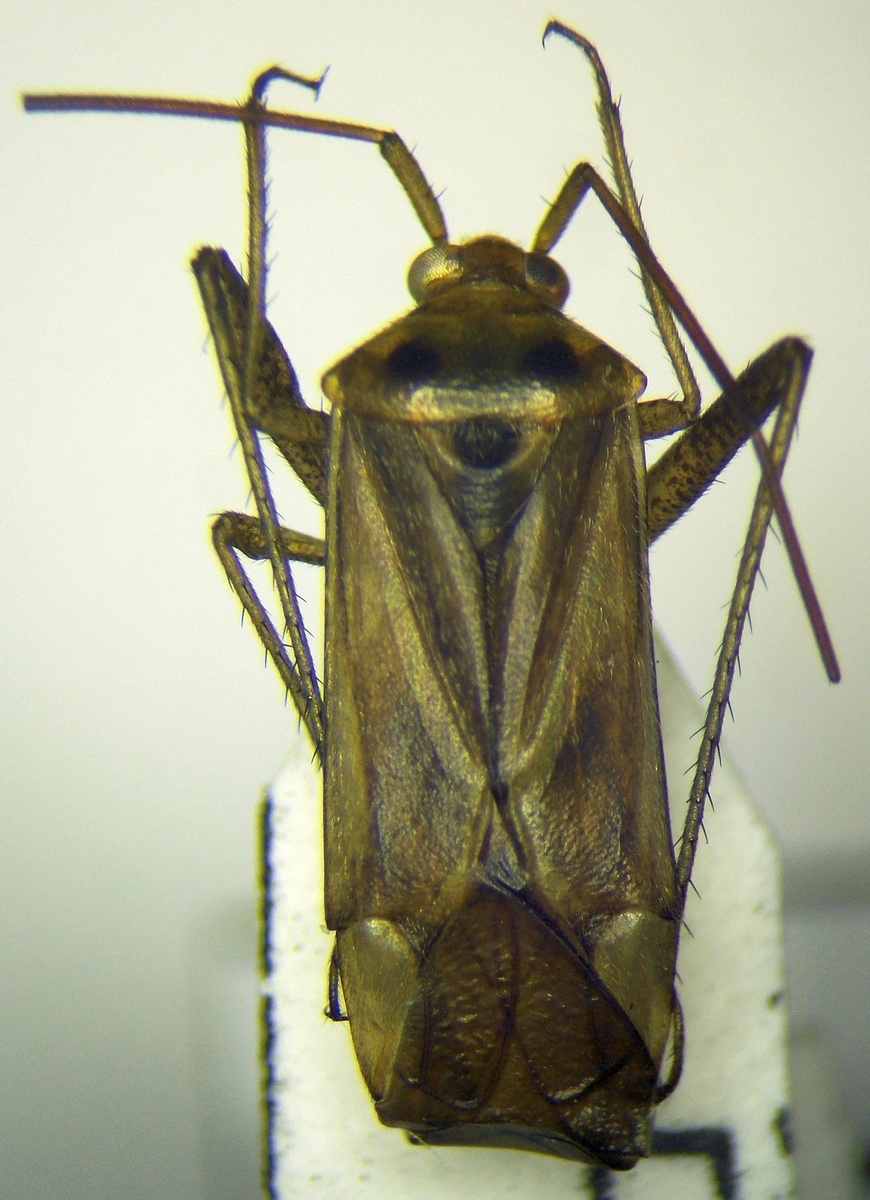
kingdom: Animalia
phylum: Arthropoda
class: Insecta
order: Hemiptera
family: Miridae
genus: Adelphocoris
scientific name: Adelphocoris ticinensis
